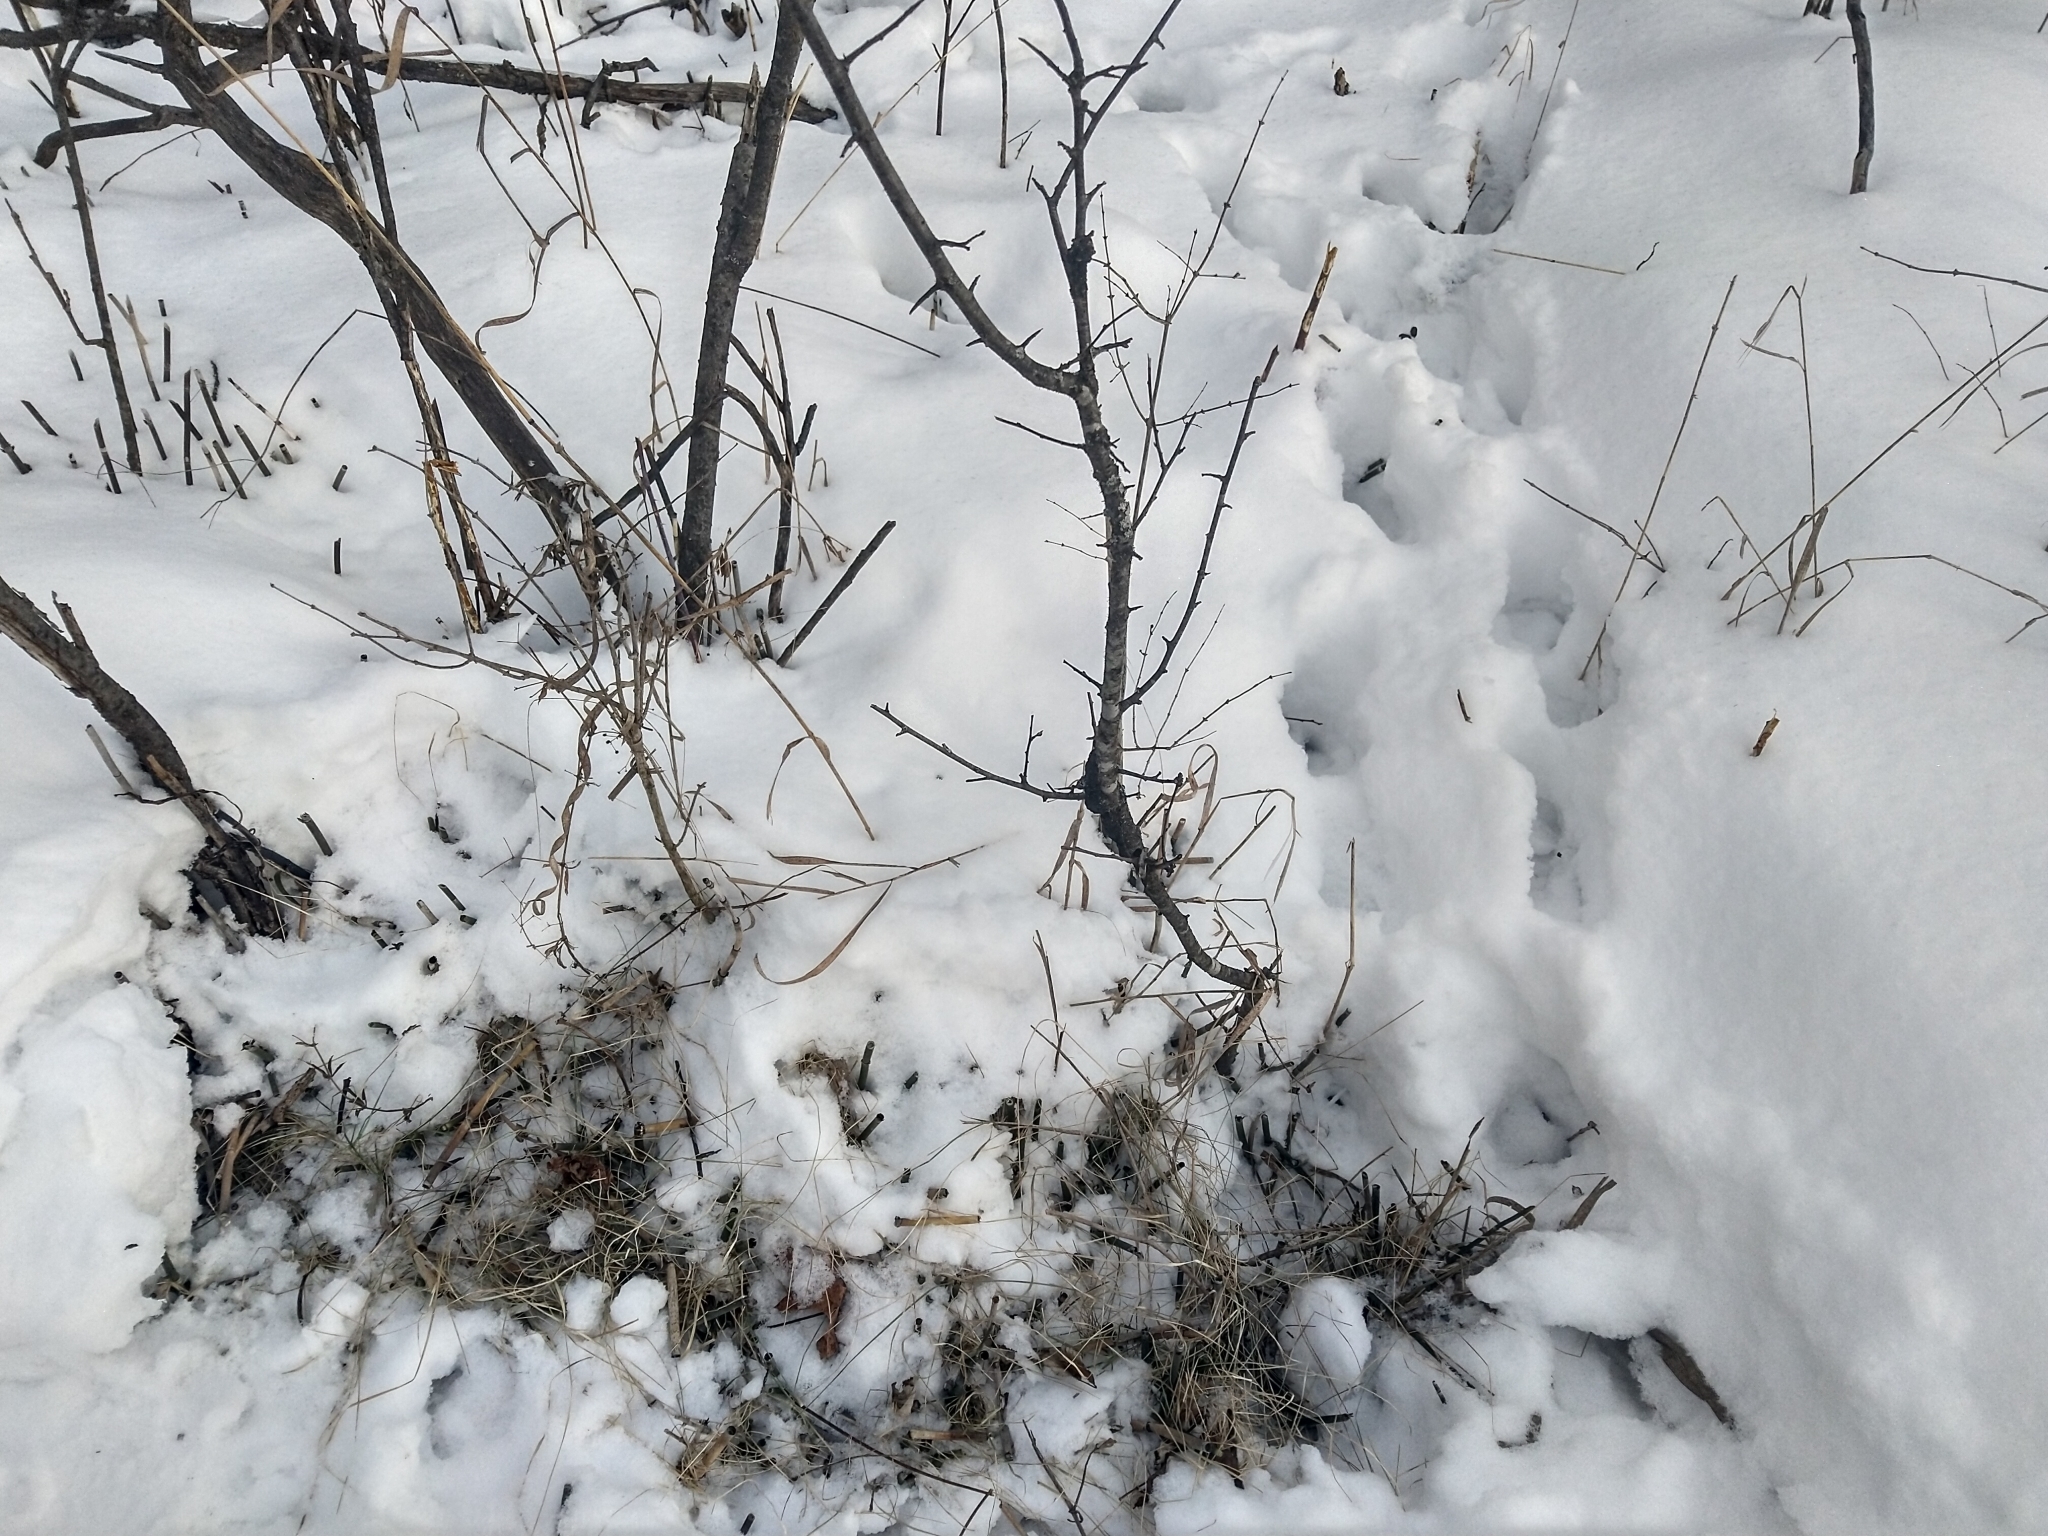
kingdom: Animalia
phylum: Chordata
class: Mammalia
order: Artiodactyla
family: Cervidae
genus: Odocoileus
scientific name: Odocoileus virginianus
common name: White-tailed deer
